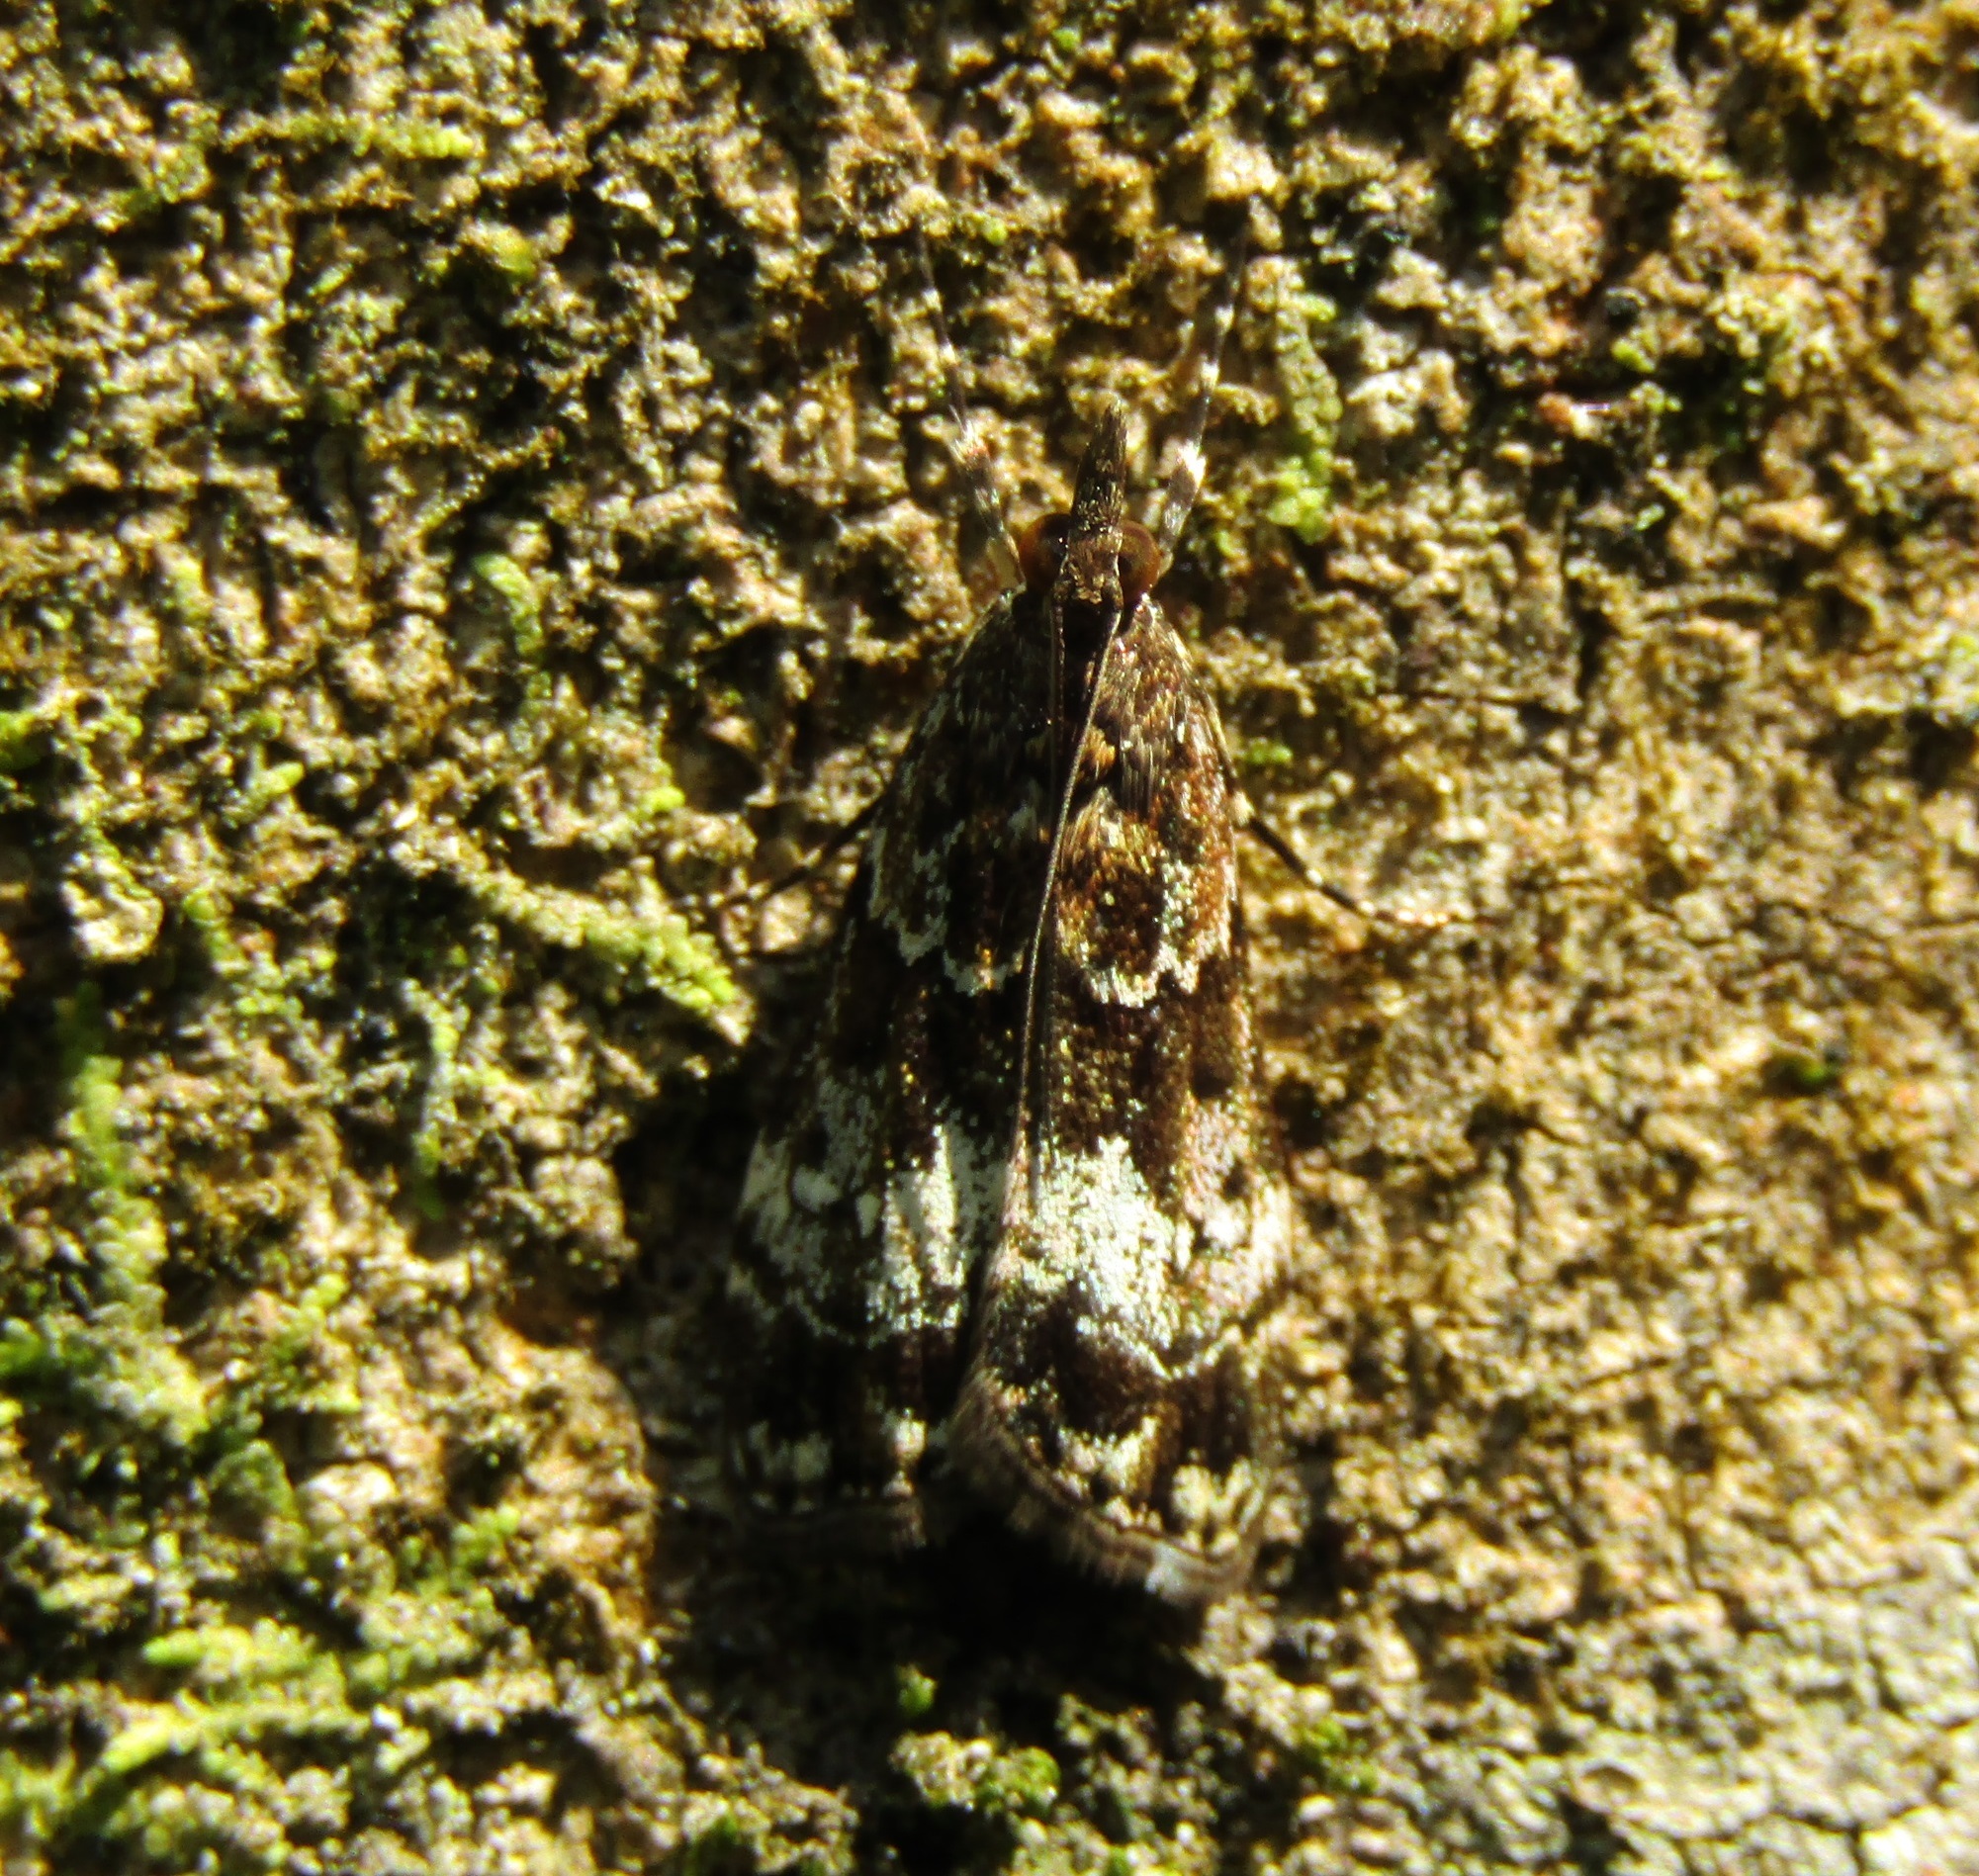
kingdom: Animalia
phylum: Arthropoda
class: Insecta
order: Lepidoptera
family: Crambidae
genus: Eudonia
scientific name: Eudonia dinodes
